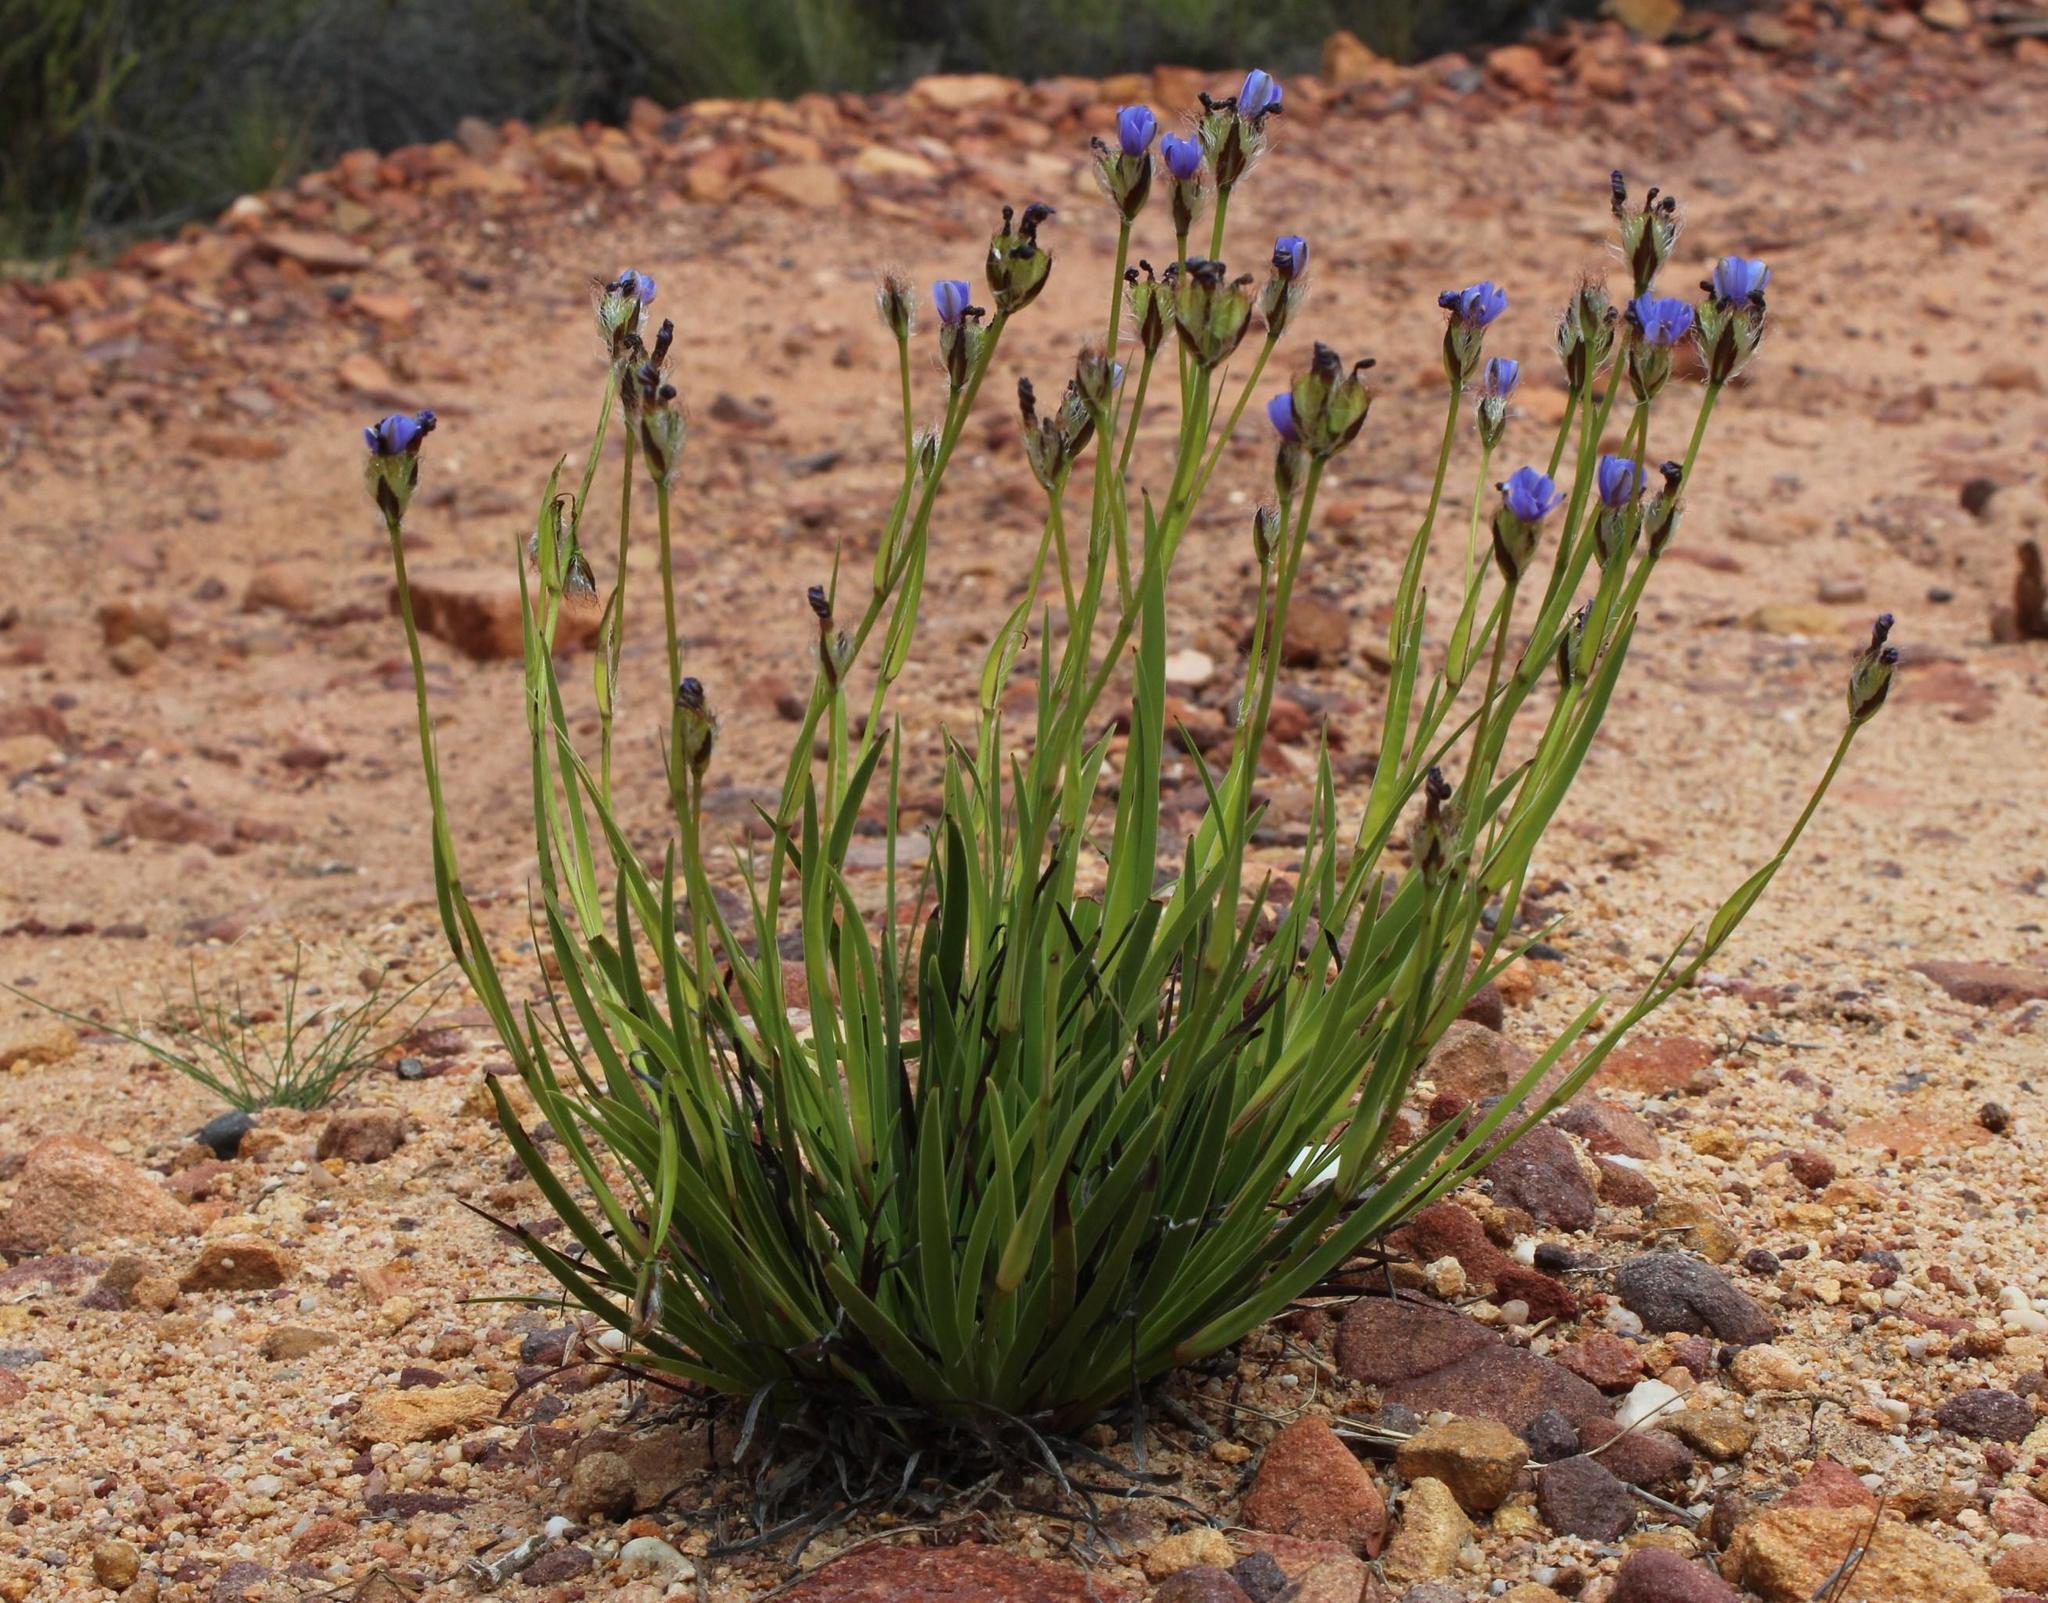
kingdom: Plantae
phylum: Tracheophyta
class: Liliopsida
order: Asparagales
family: Iridaceae
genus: Aristea
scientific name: Aristea africana
